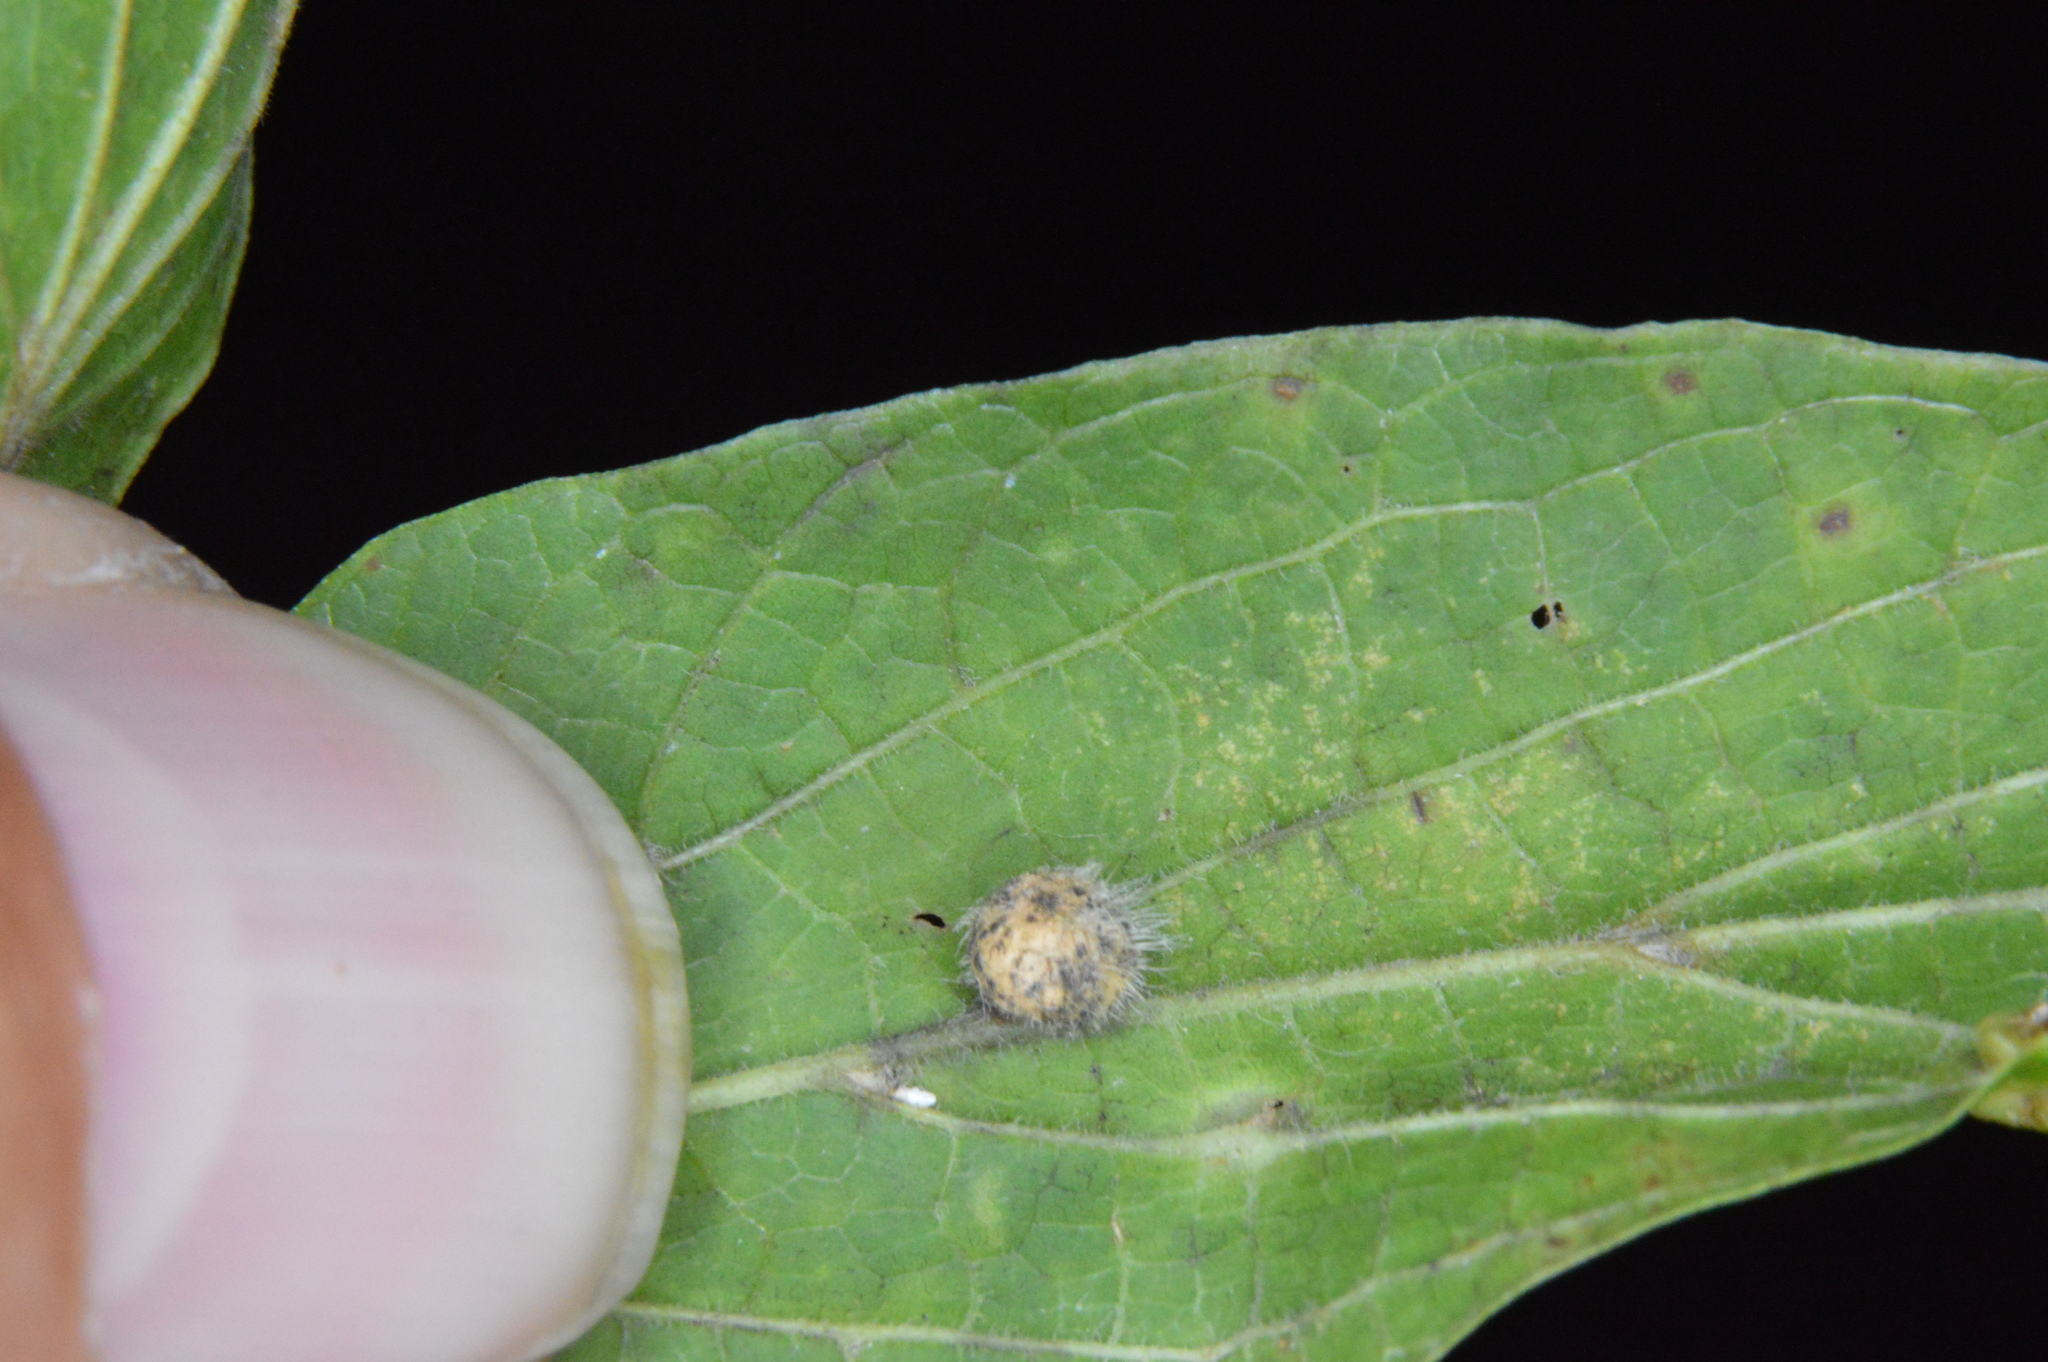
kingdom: Animalia
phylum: Arthropoda
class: Insecta
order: Diptera
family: Cecidomyiidae
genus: Celticecis
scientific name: Celticecis pubescens
